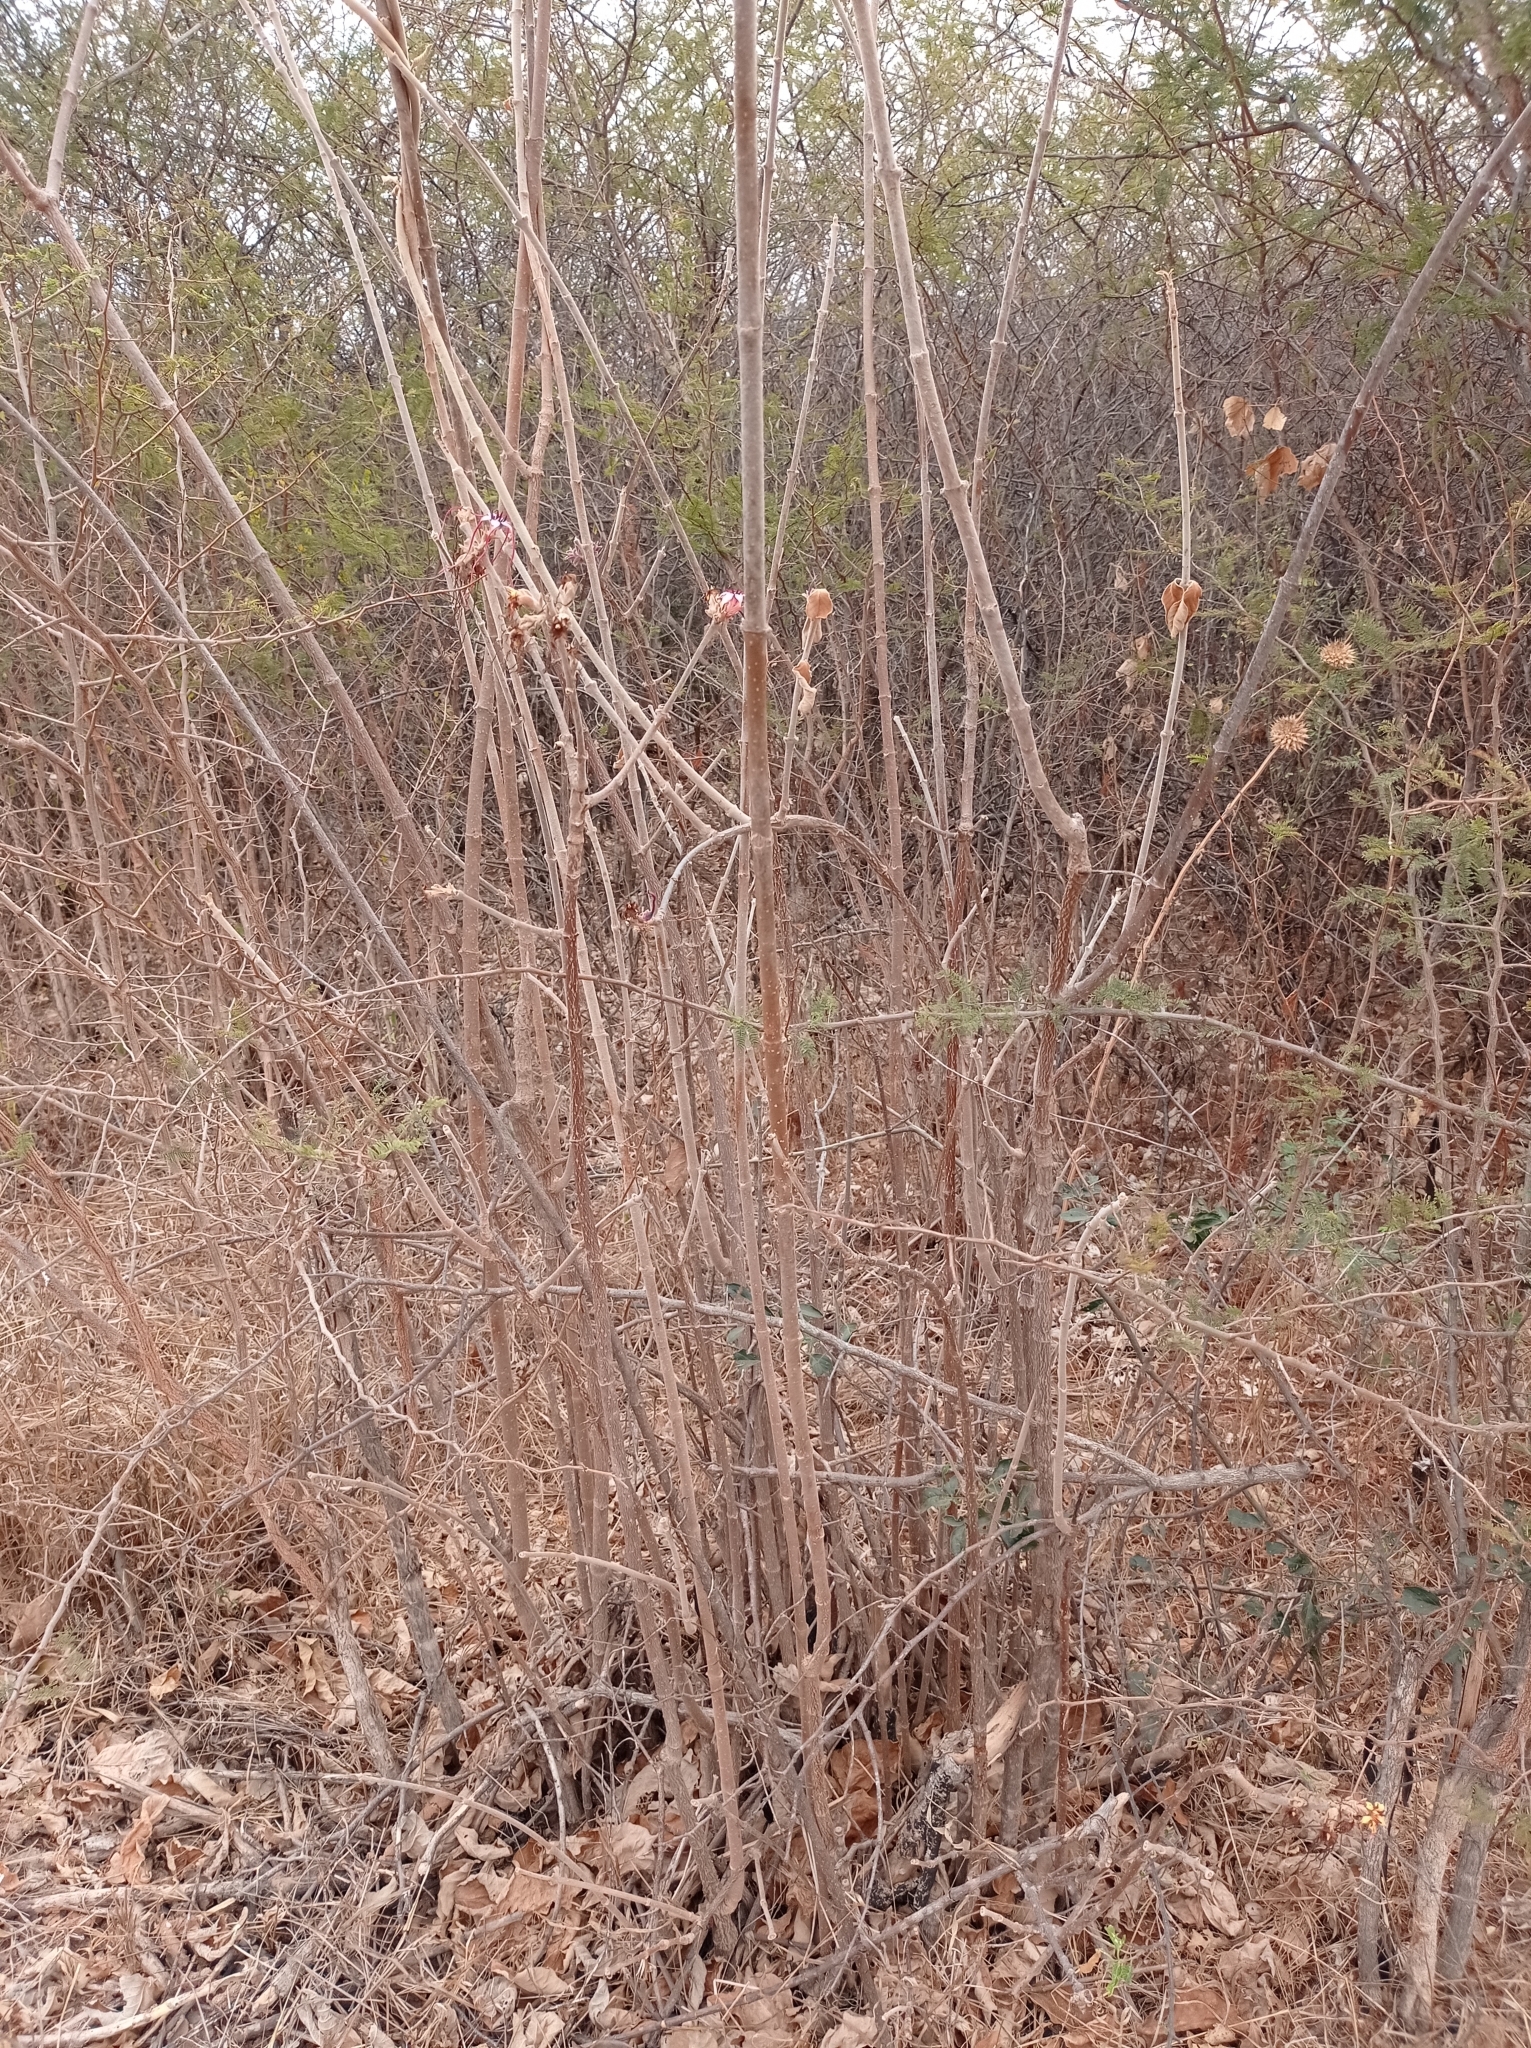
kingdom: Plantae
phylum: Tracheophyta
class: Magnoliopsida
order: Gentianales
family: Apocynaceae
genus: Strophanthus
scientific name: Strophanthus petersianus
